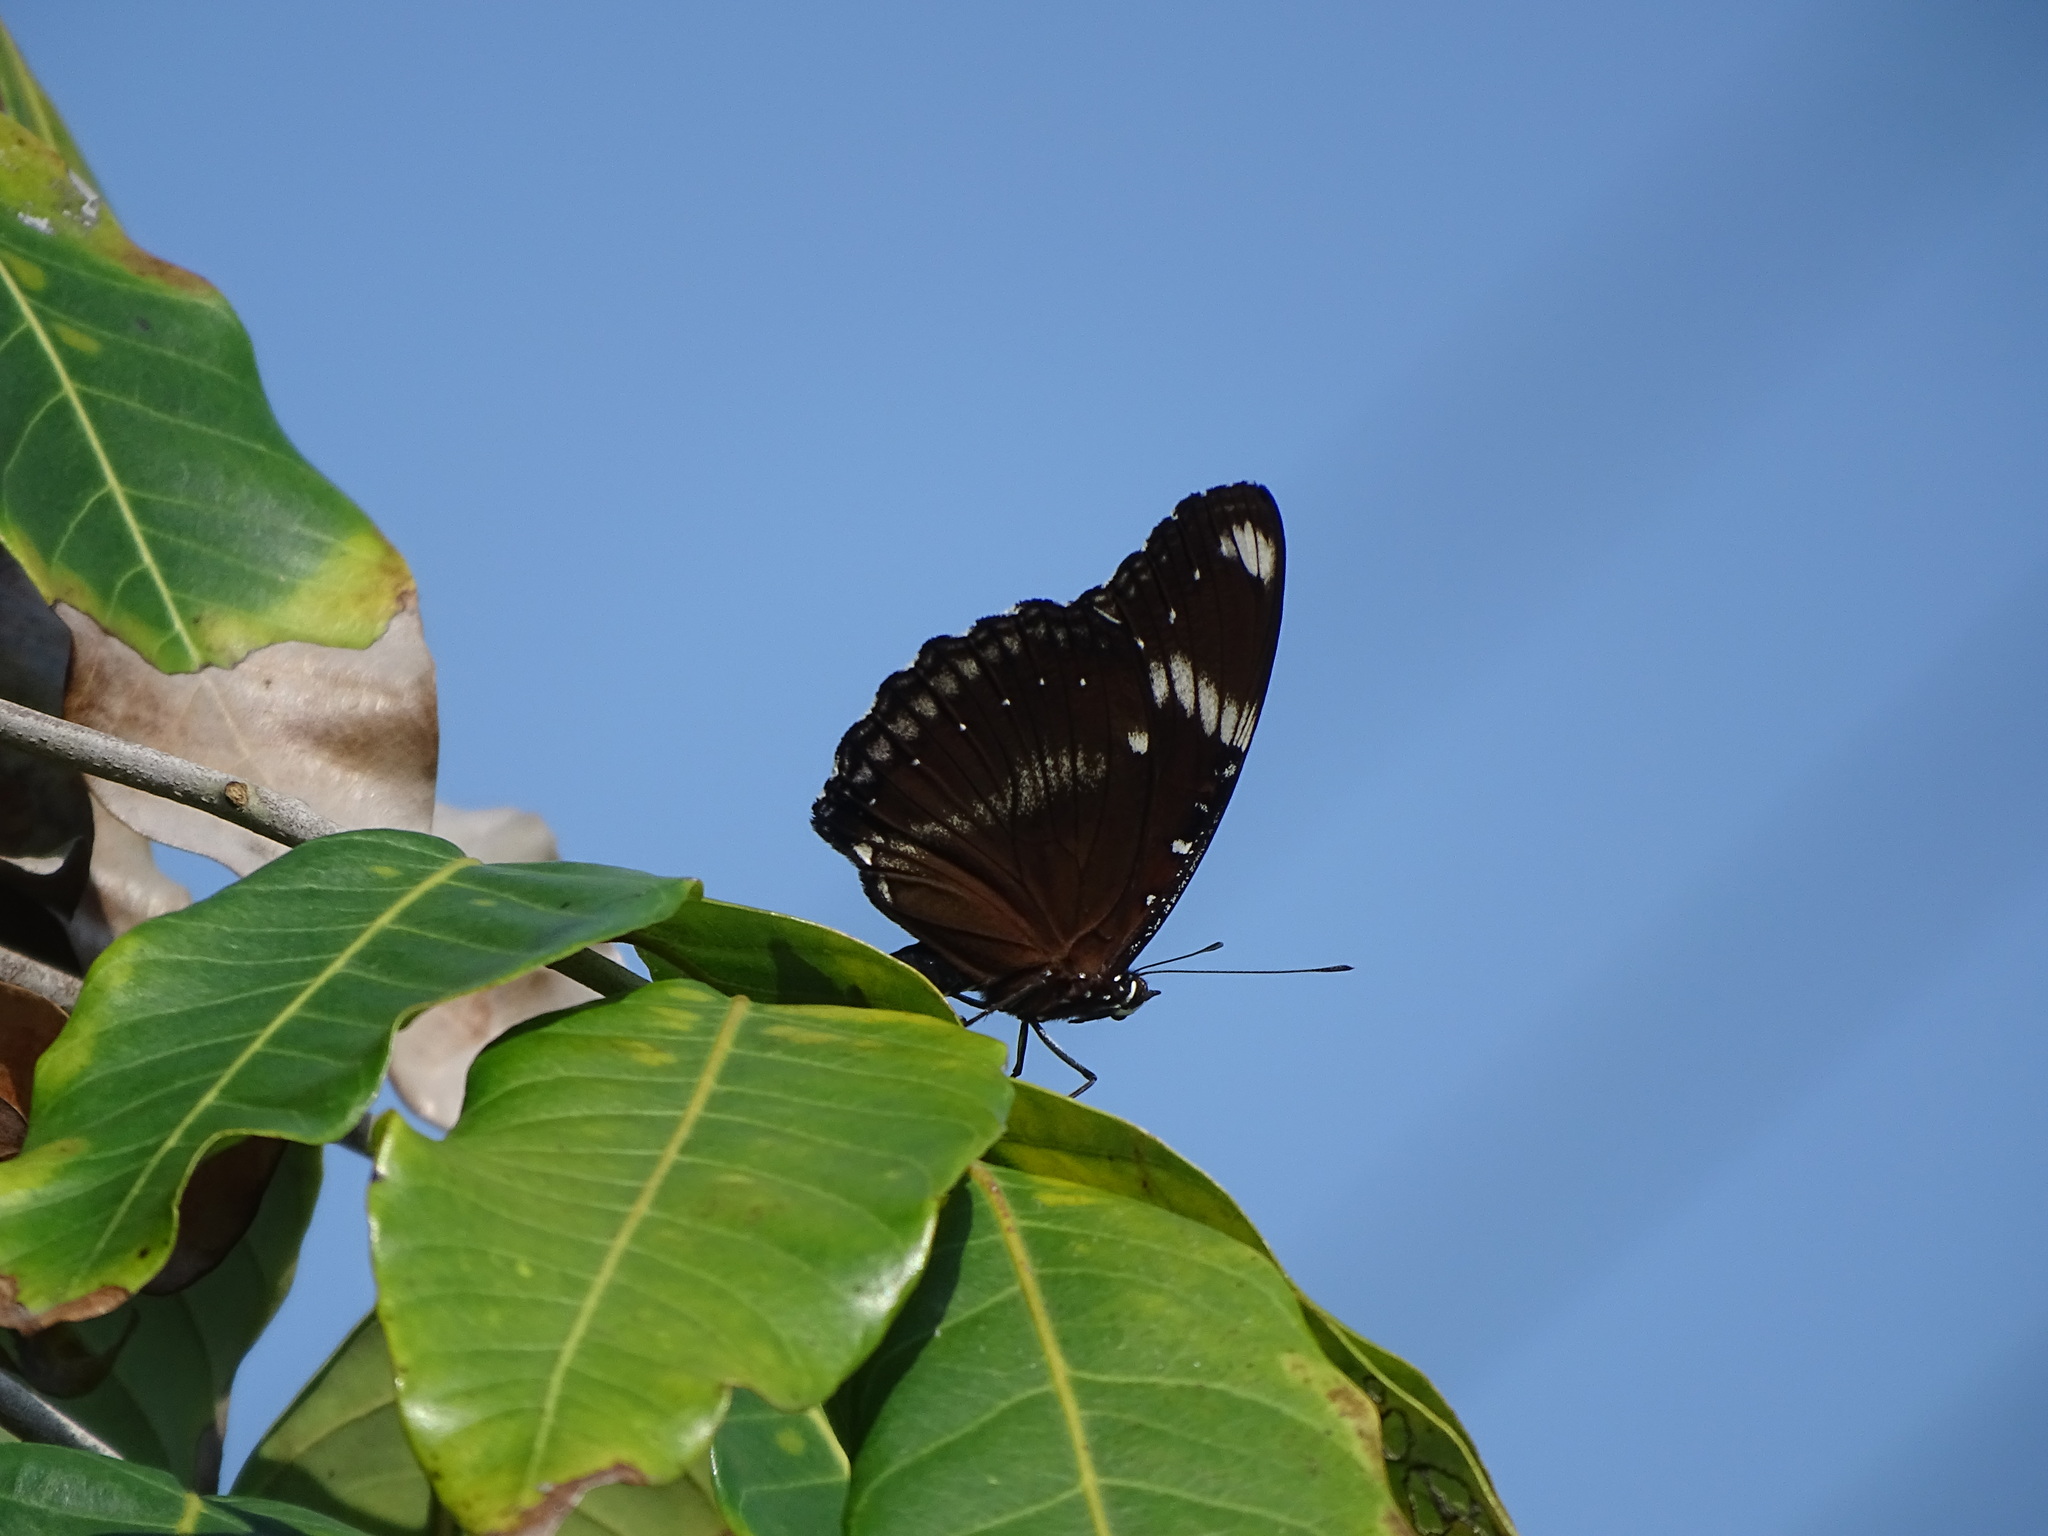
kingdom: Animalia
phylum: Arthropoda
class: Insecta
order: Lepidoptera
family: Nymphalidae
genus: Hypolimnas
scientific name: Hypolimnas bolina
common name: Great eggfly
